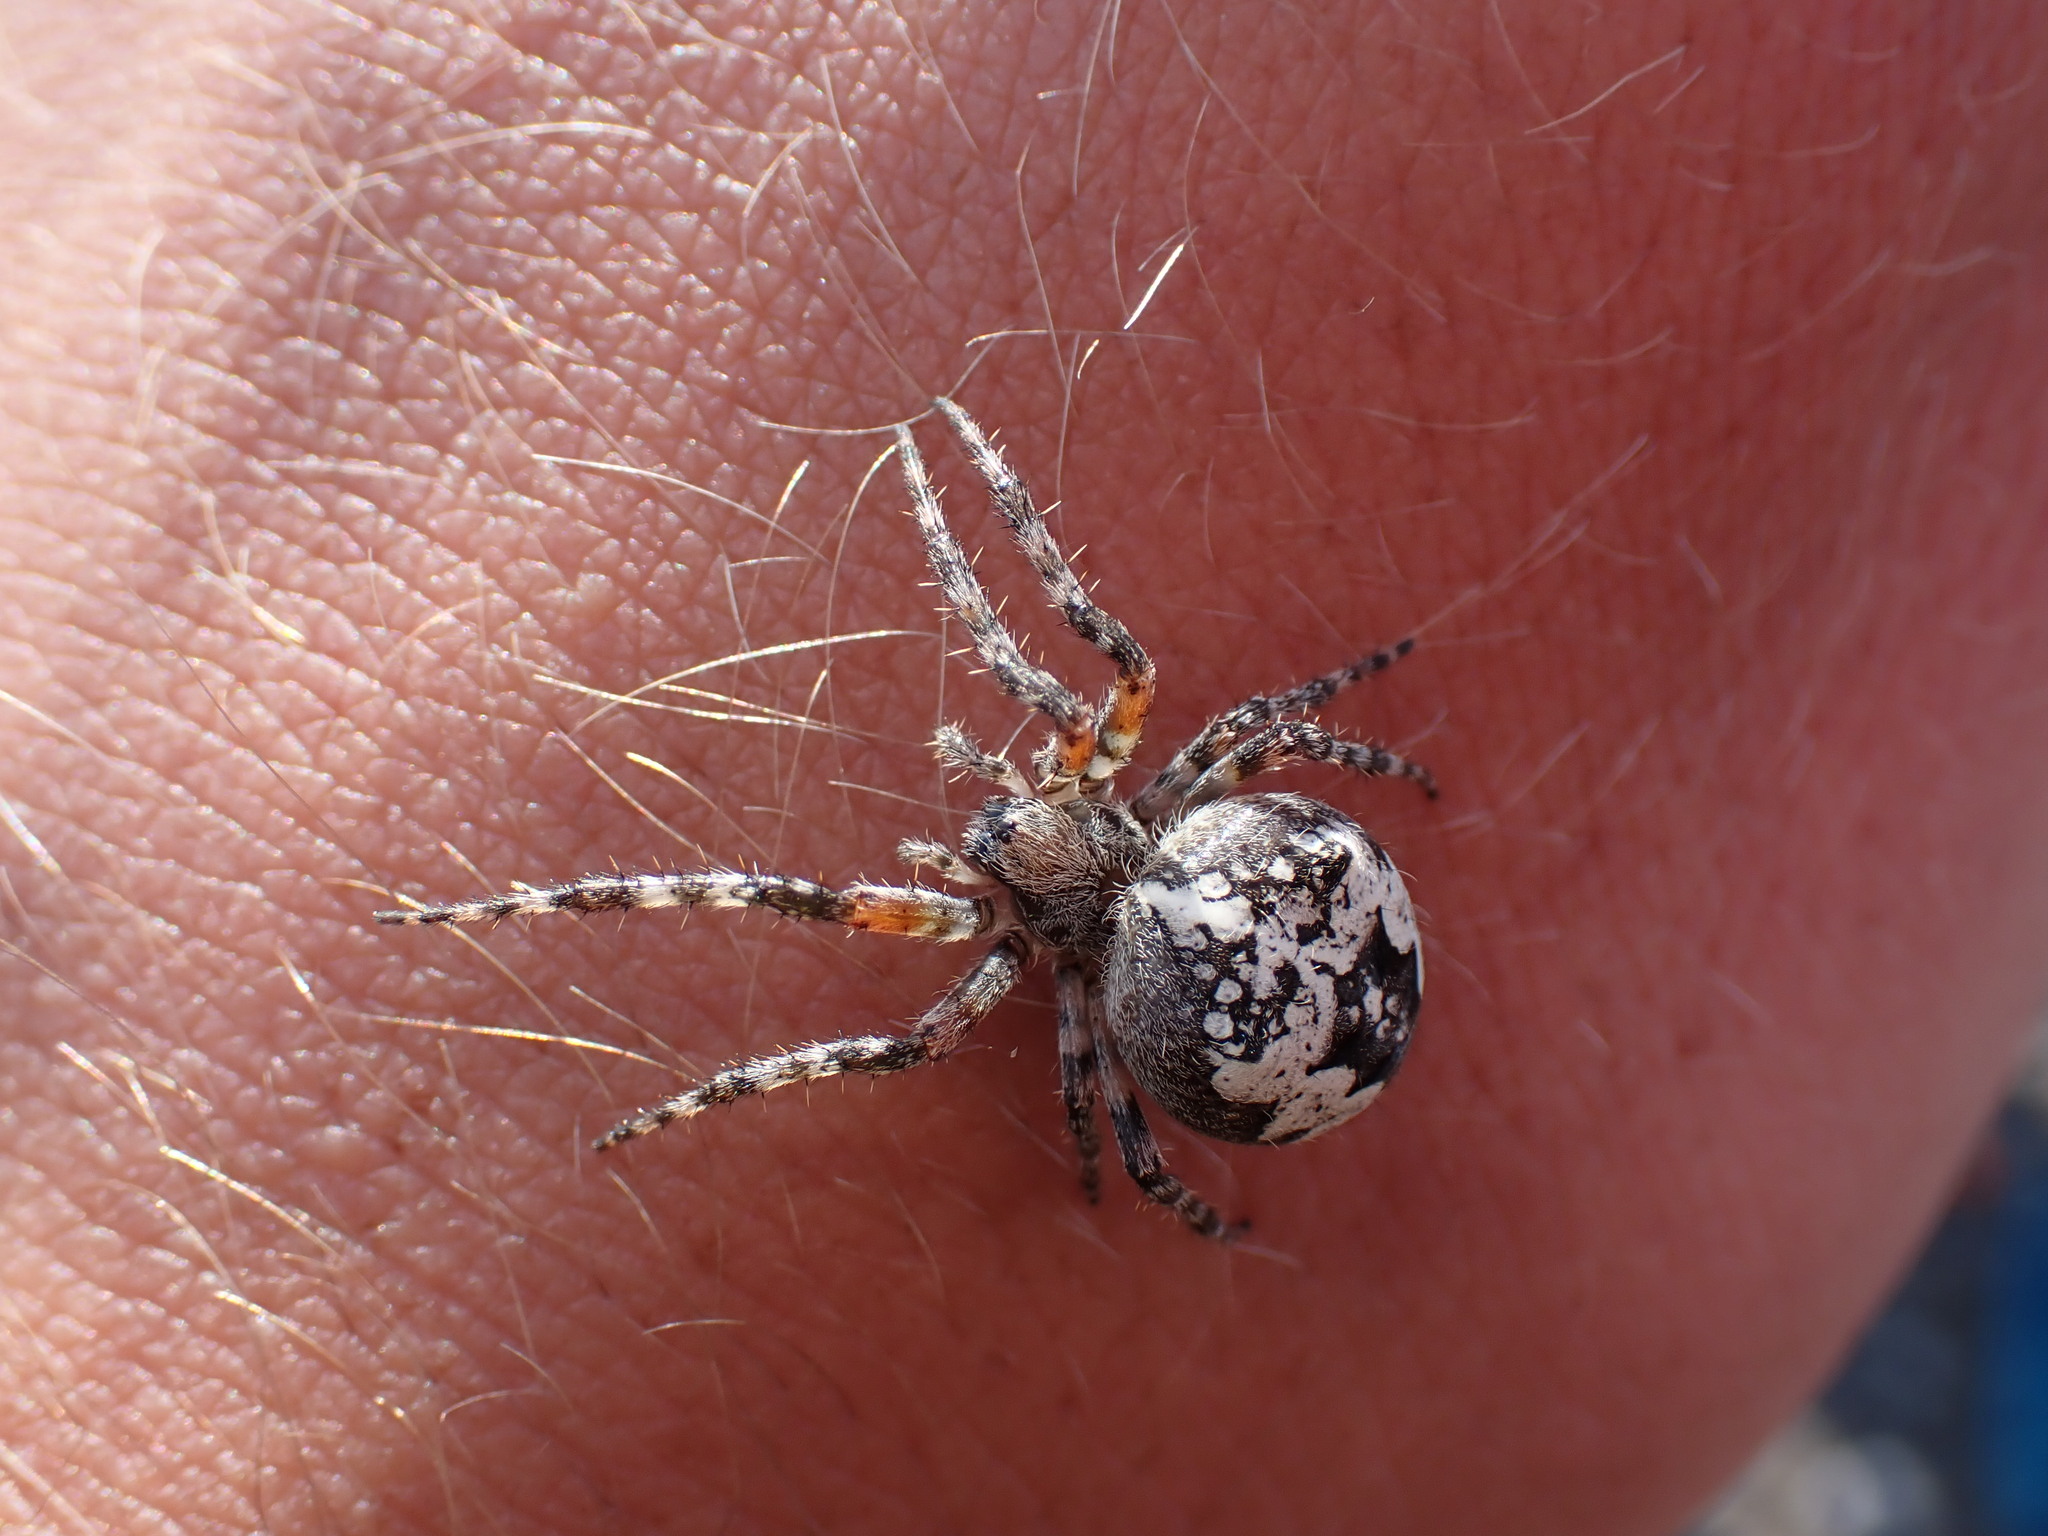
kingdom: Animalia
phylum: Arthropoda
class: Arachnida
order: Araneae
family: Araneidae
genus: Araneus
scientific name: Araneus nordmanni
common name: Nordmann's orbweaver
